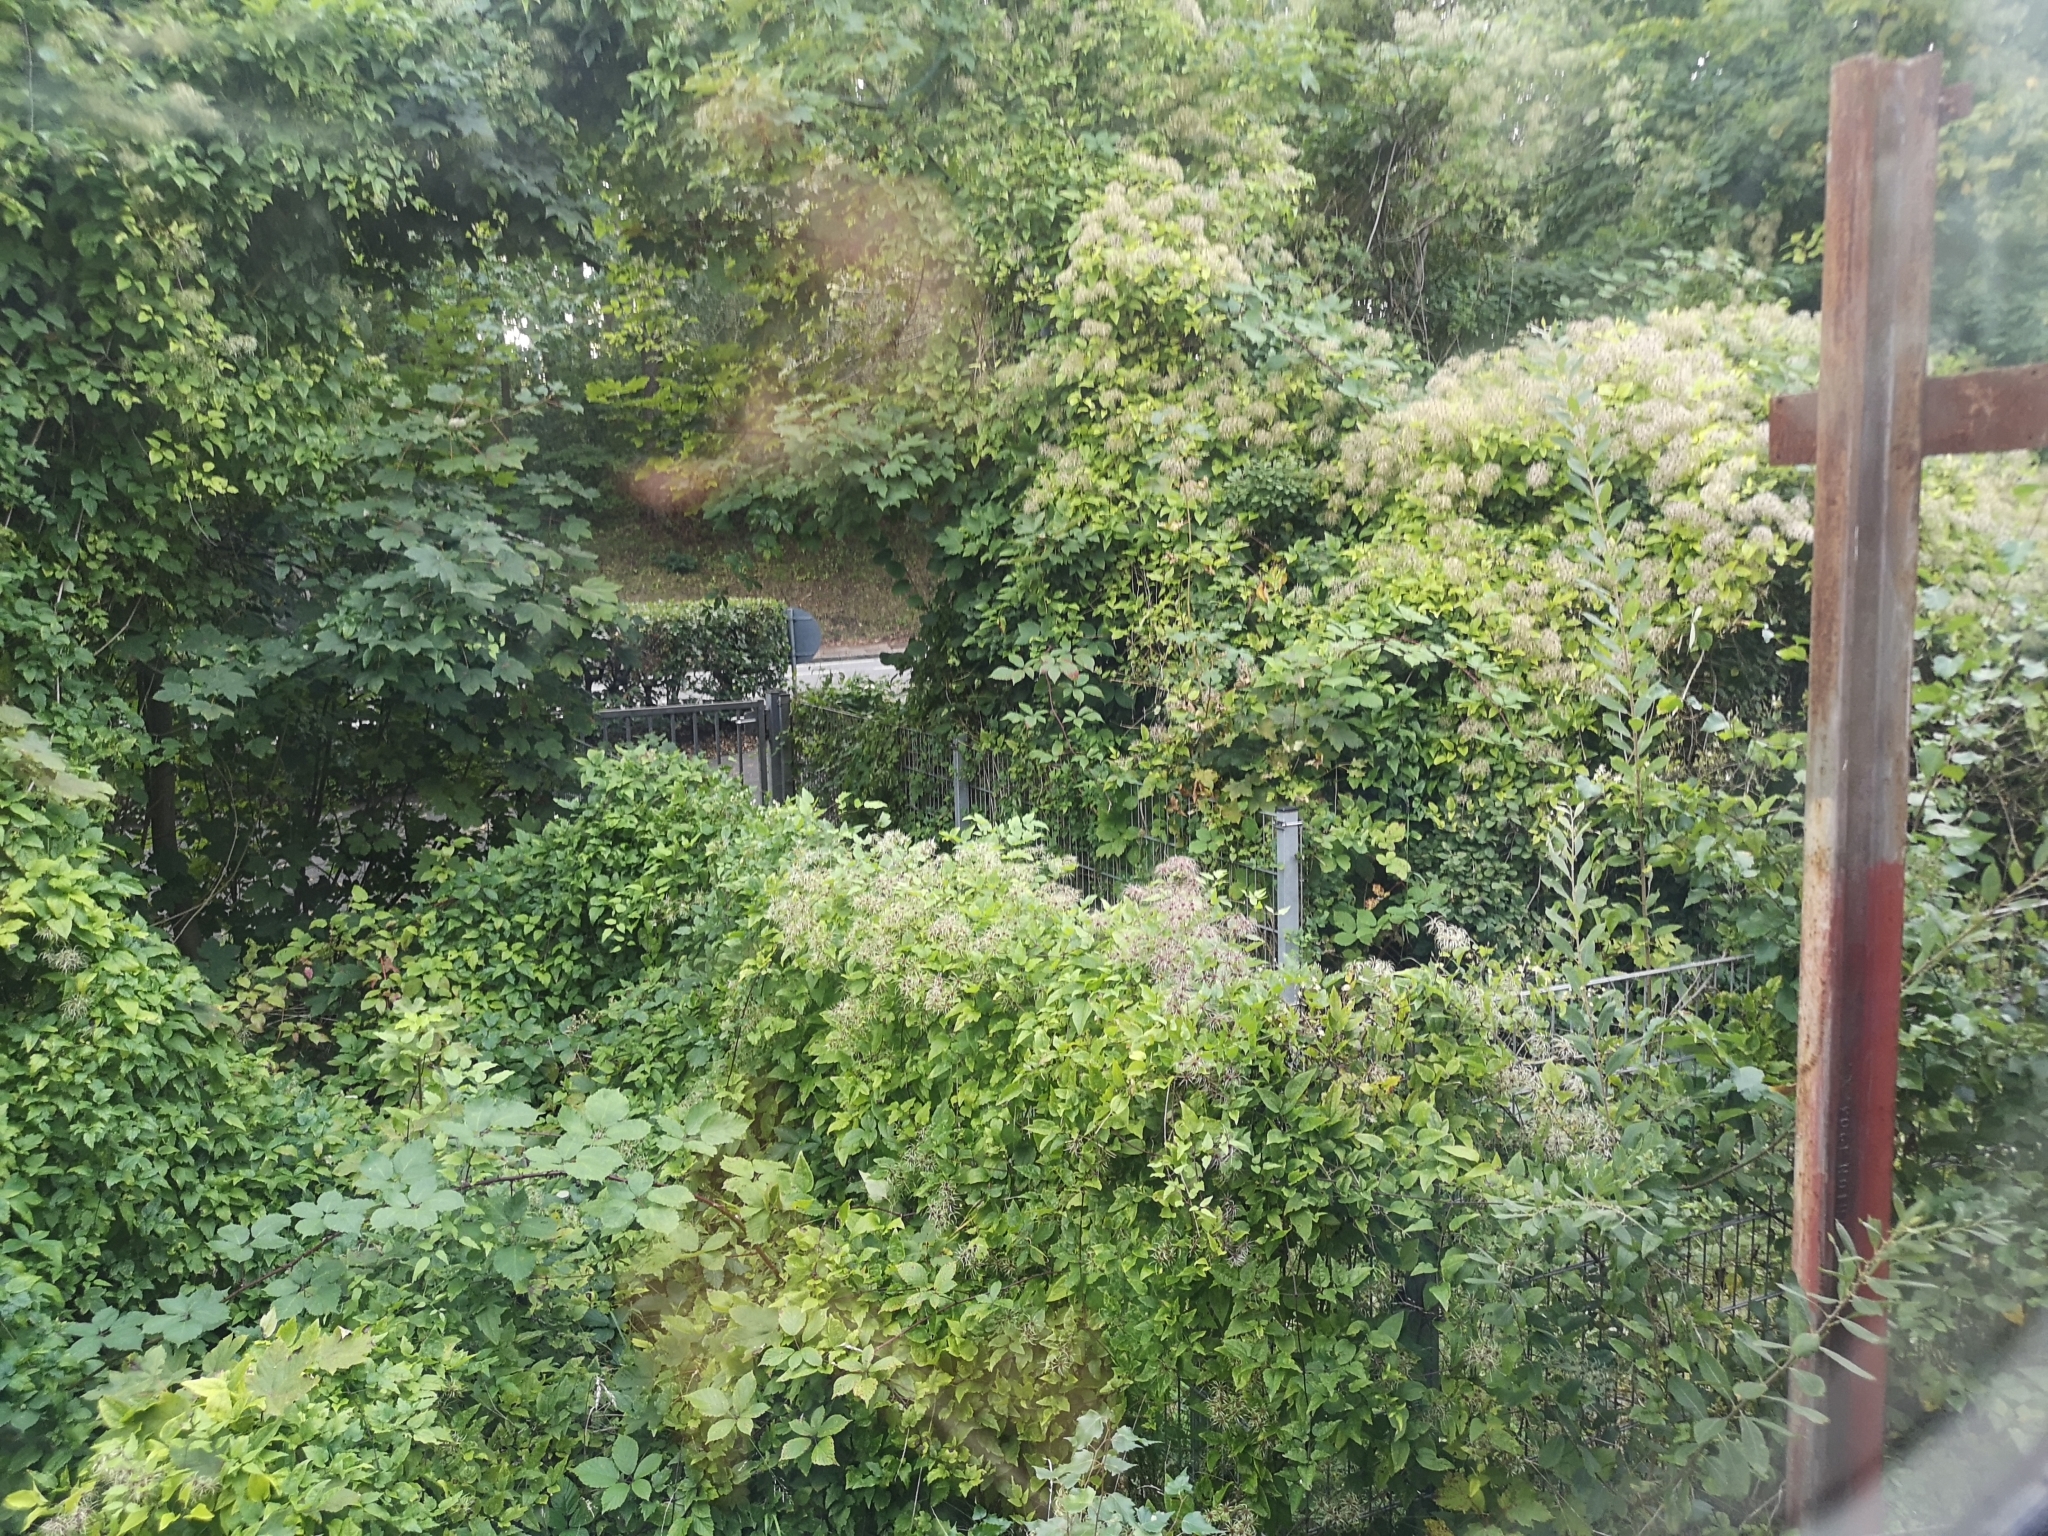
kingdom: Plantae
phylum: Tracheophyta
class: Magnoliopsida
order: Ranunculales
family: Ranunculaceae
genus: Clematis
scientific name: Clematis vitalba
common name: Evergreen clematis
